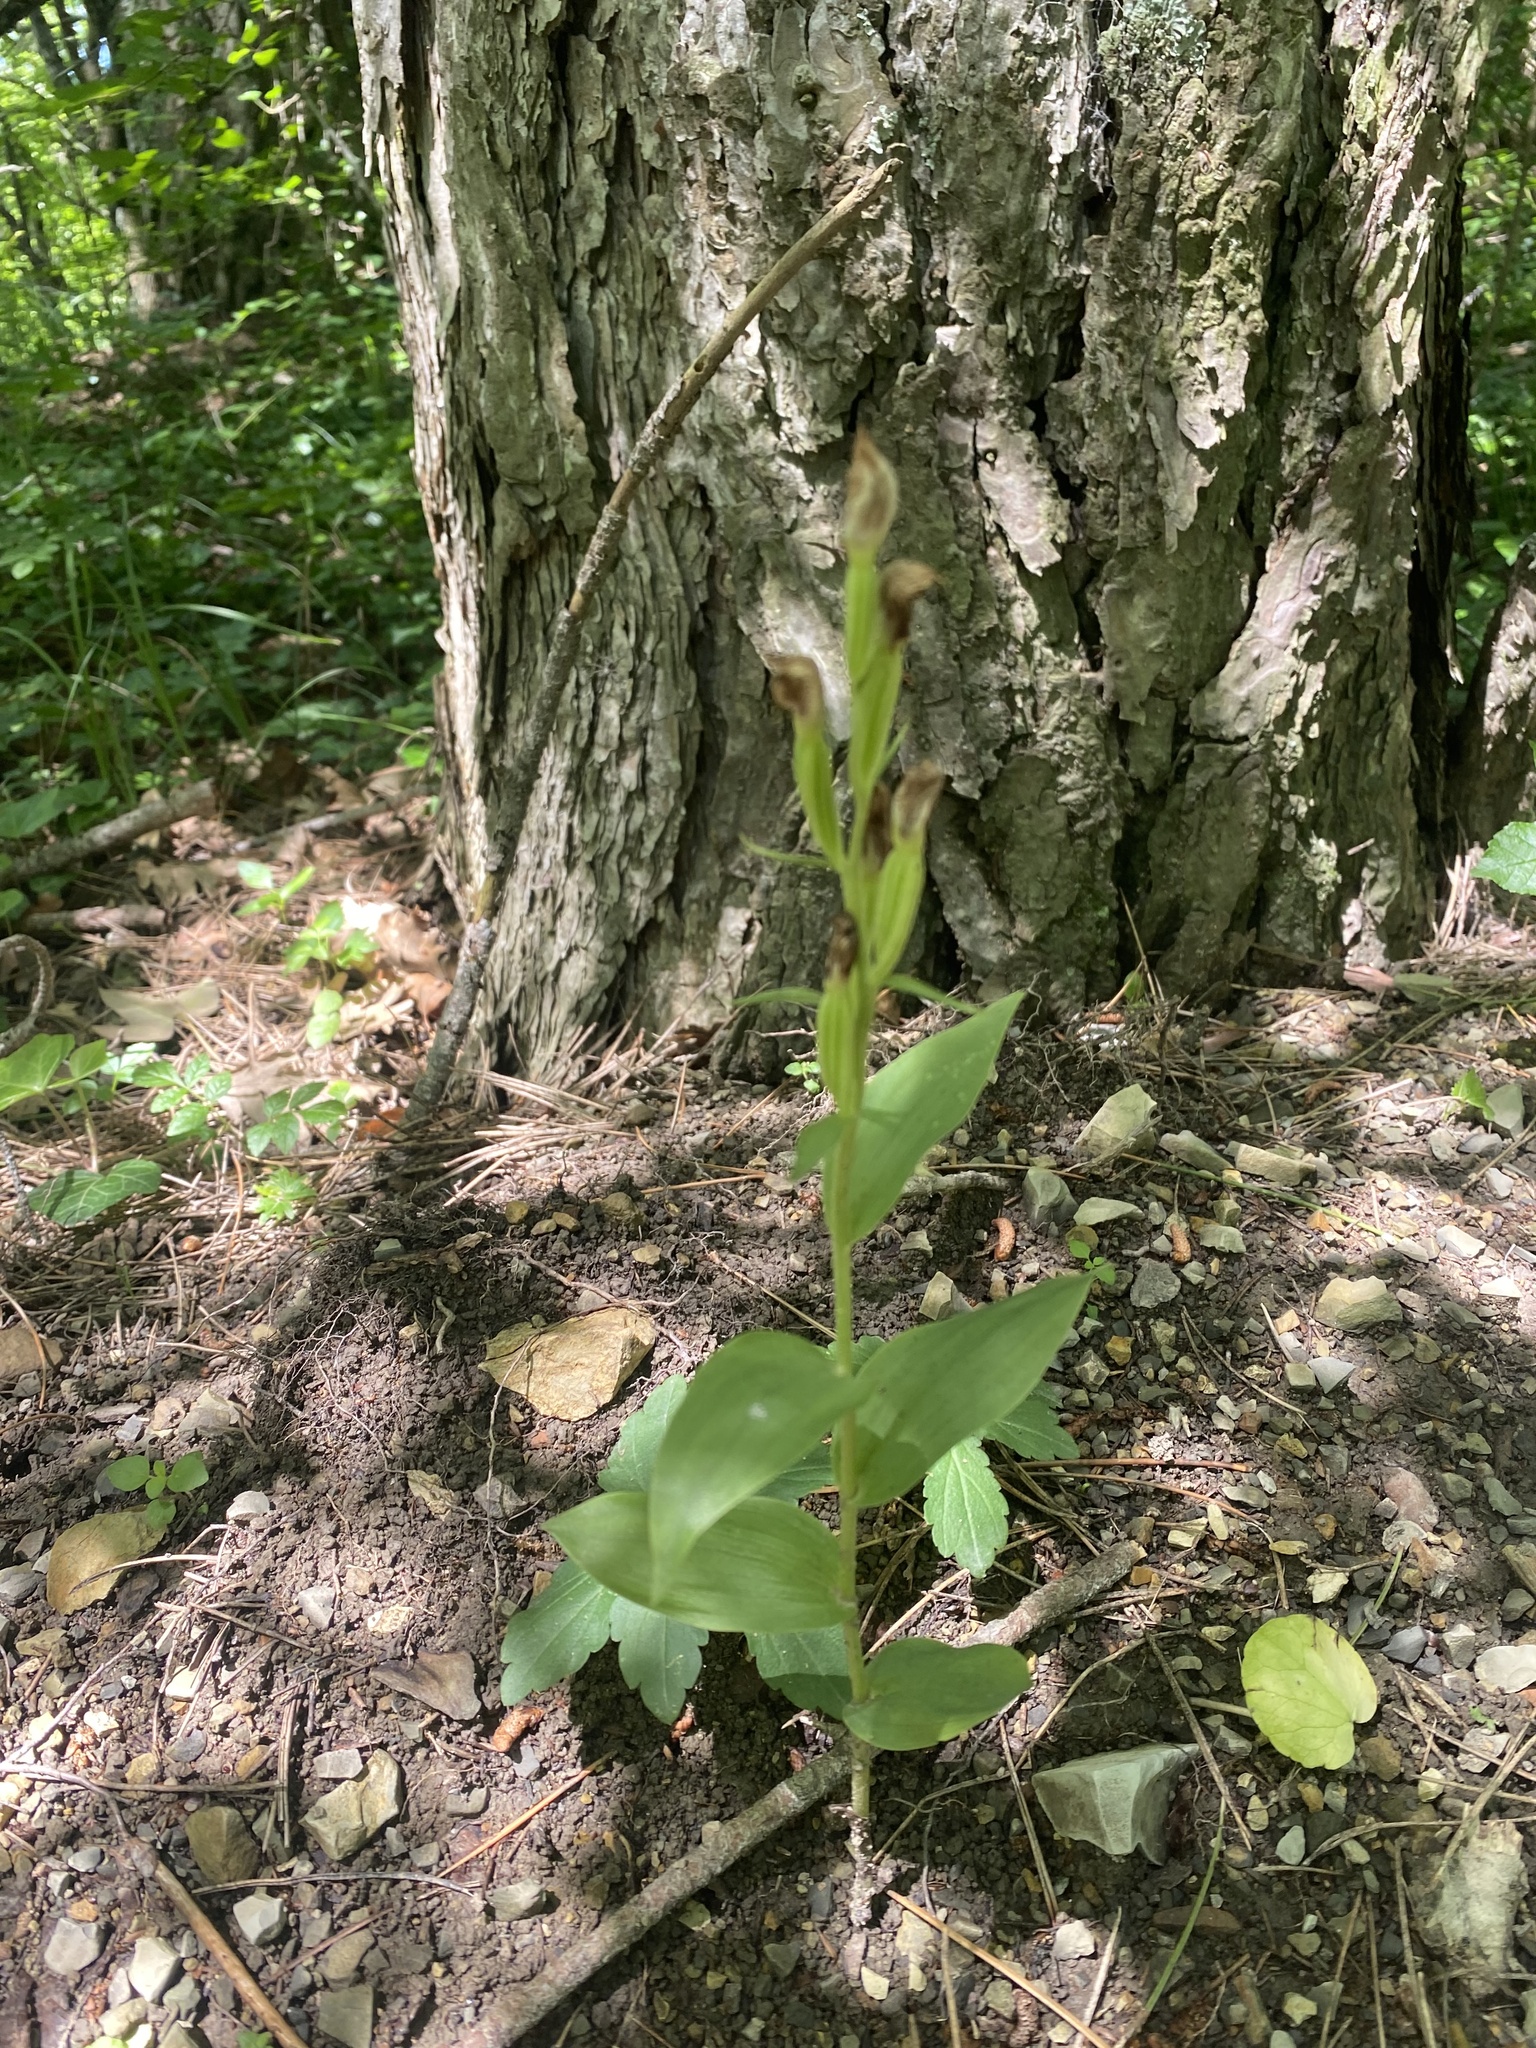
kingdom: Plantae
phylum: Tracheophyta
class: Liliopsida
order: Asparagales
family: Orchidaceae
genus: Cephalanthera
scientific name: Cephalanthera damasonium
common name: White helleborine
